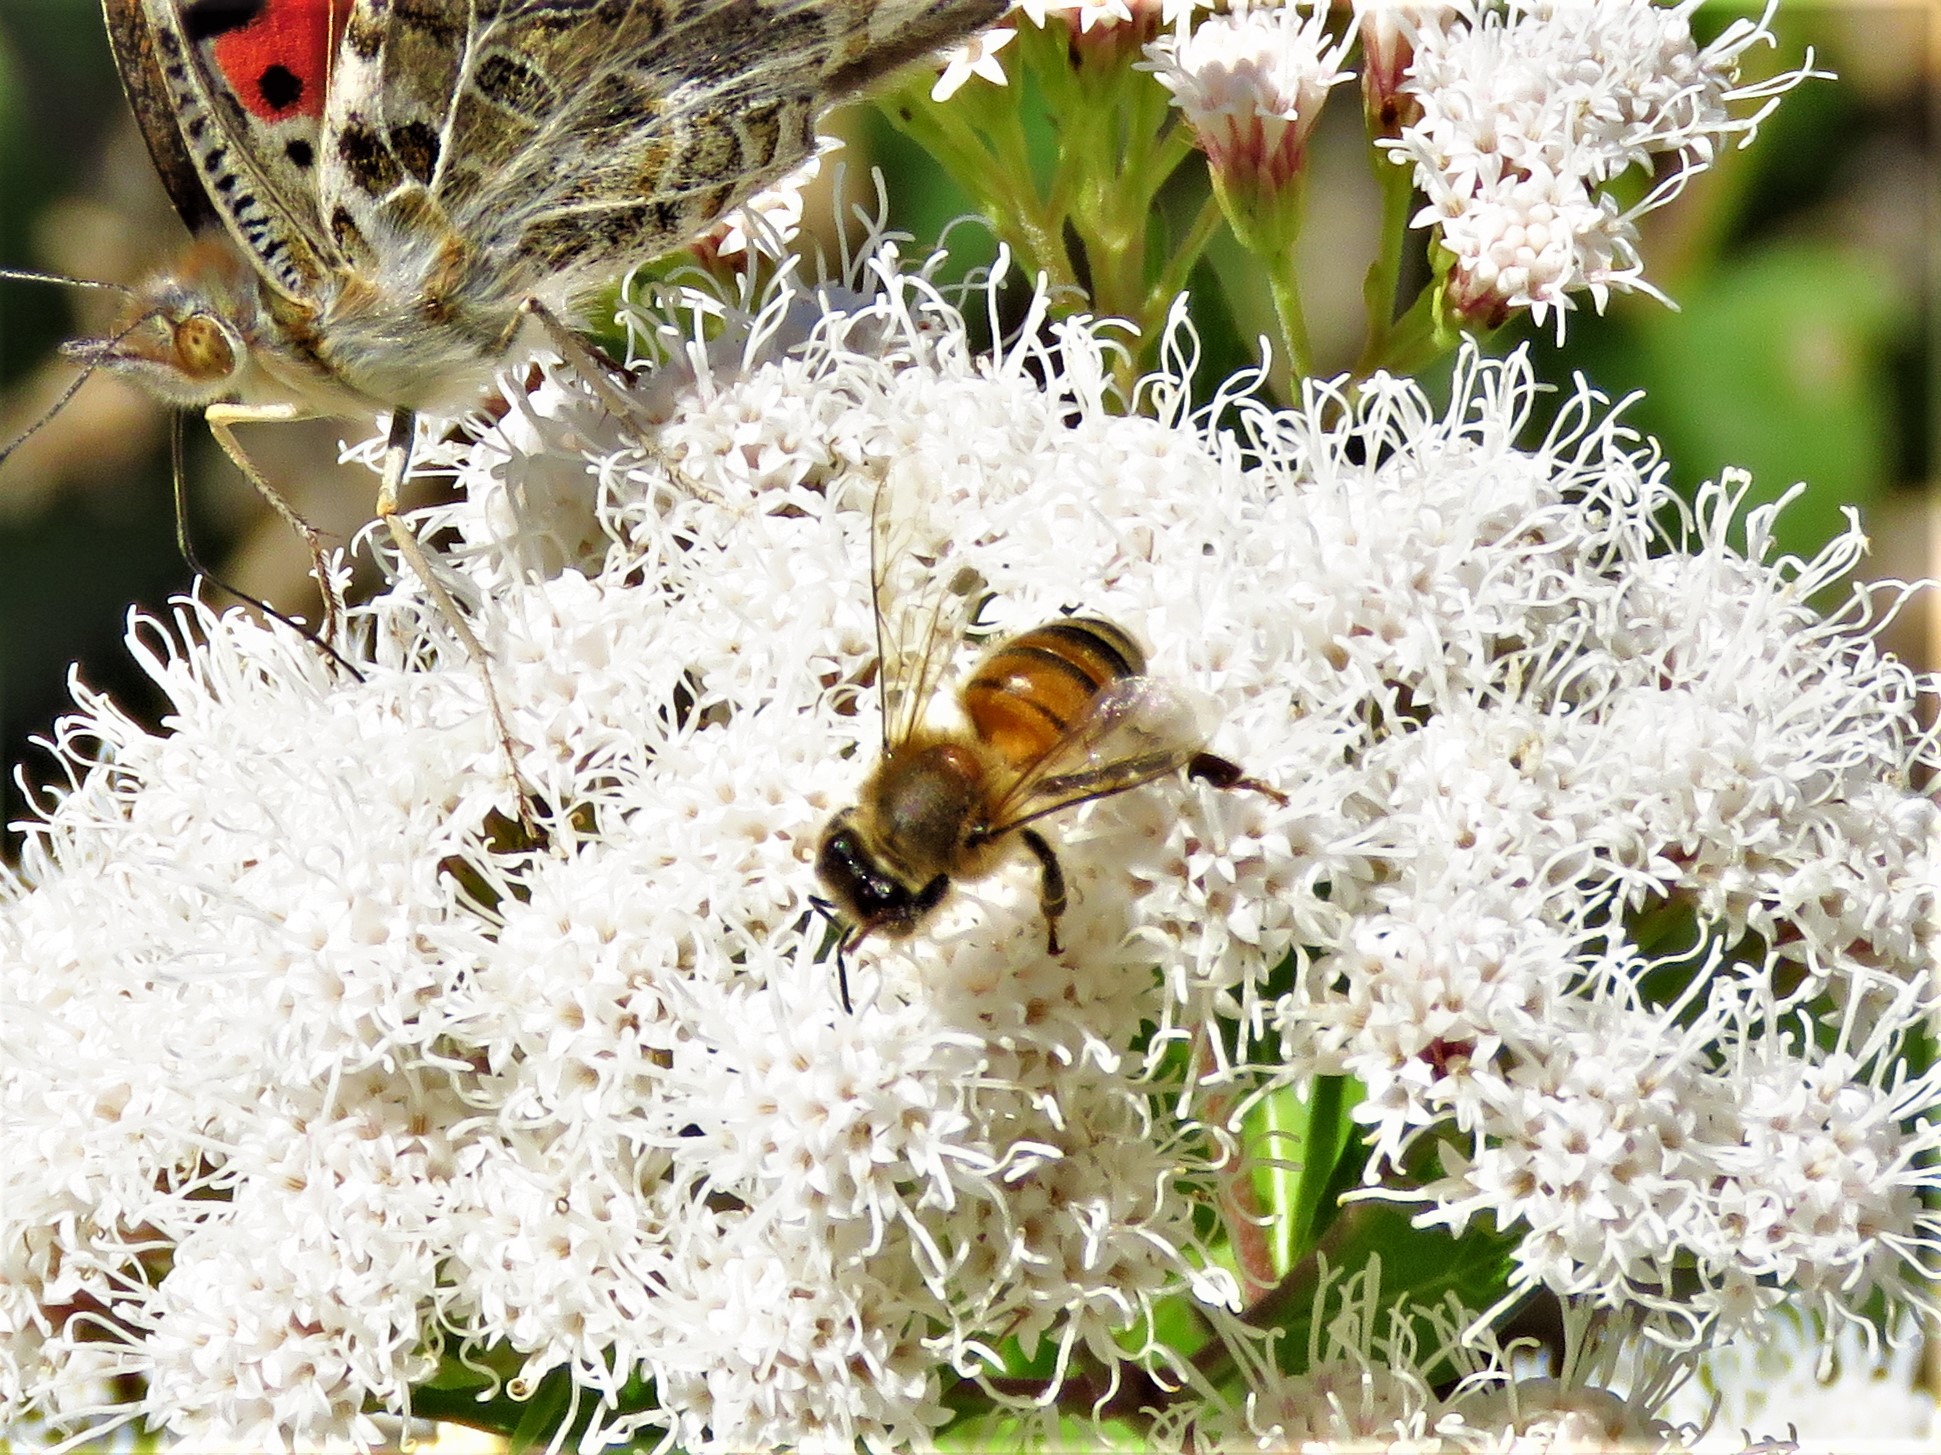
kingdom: Animalia
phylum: Arthropoda
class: Insecta
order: Hymenoptera
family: Apidae
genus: Apis
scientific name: Apis mellifera
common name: Honey bee
